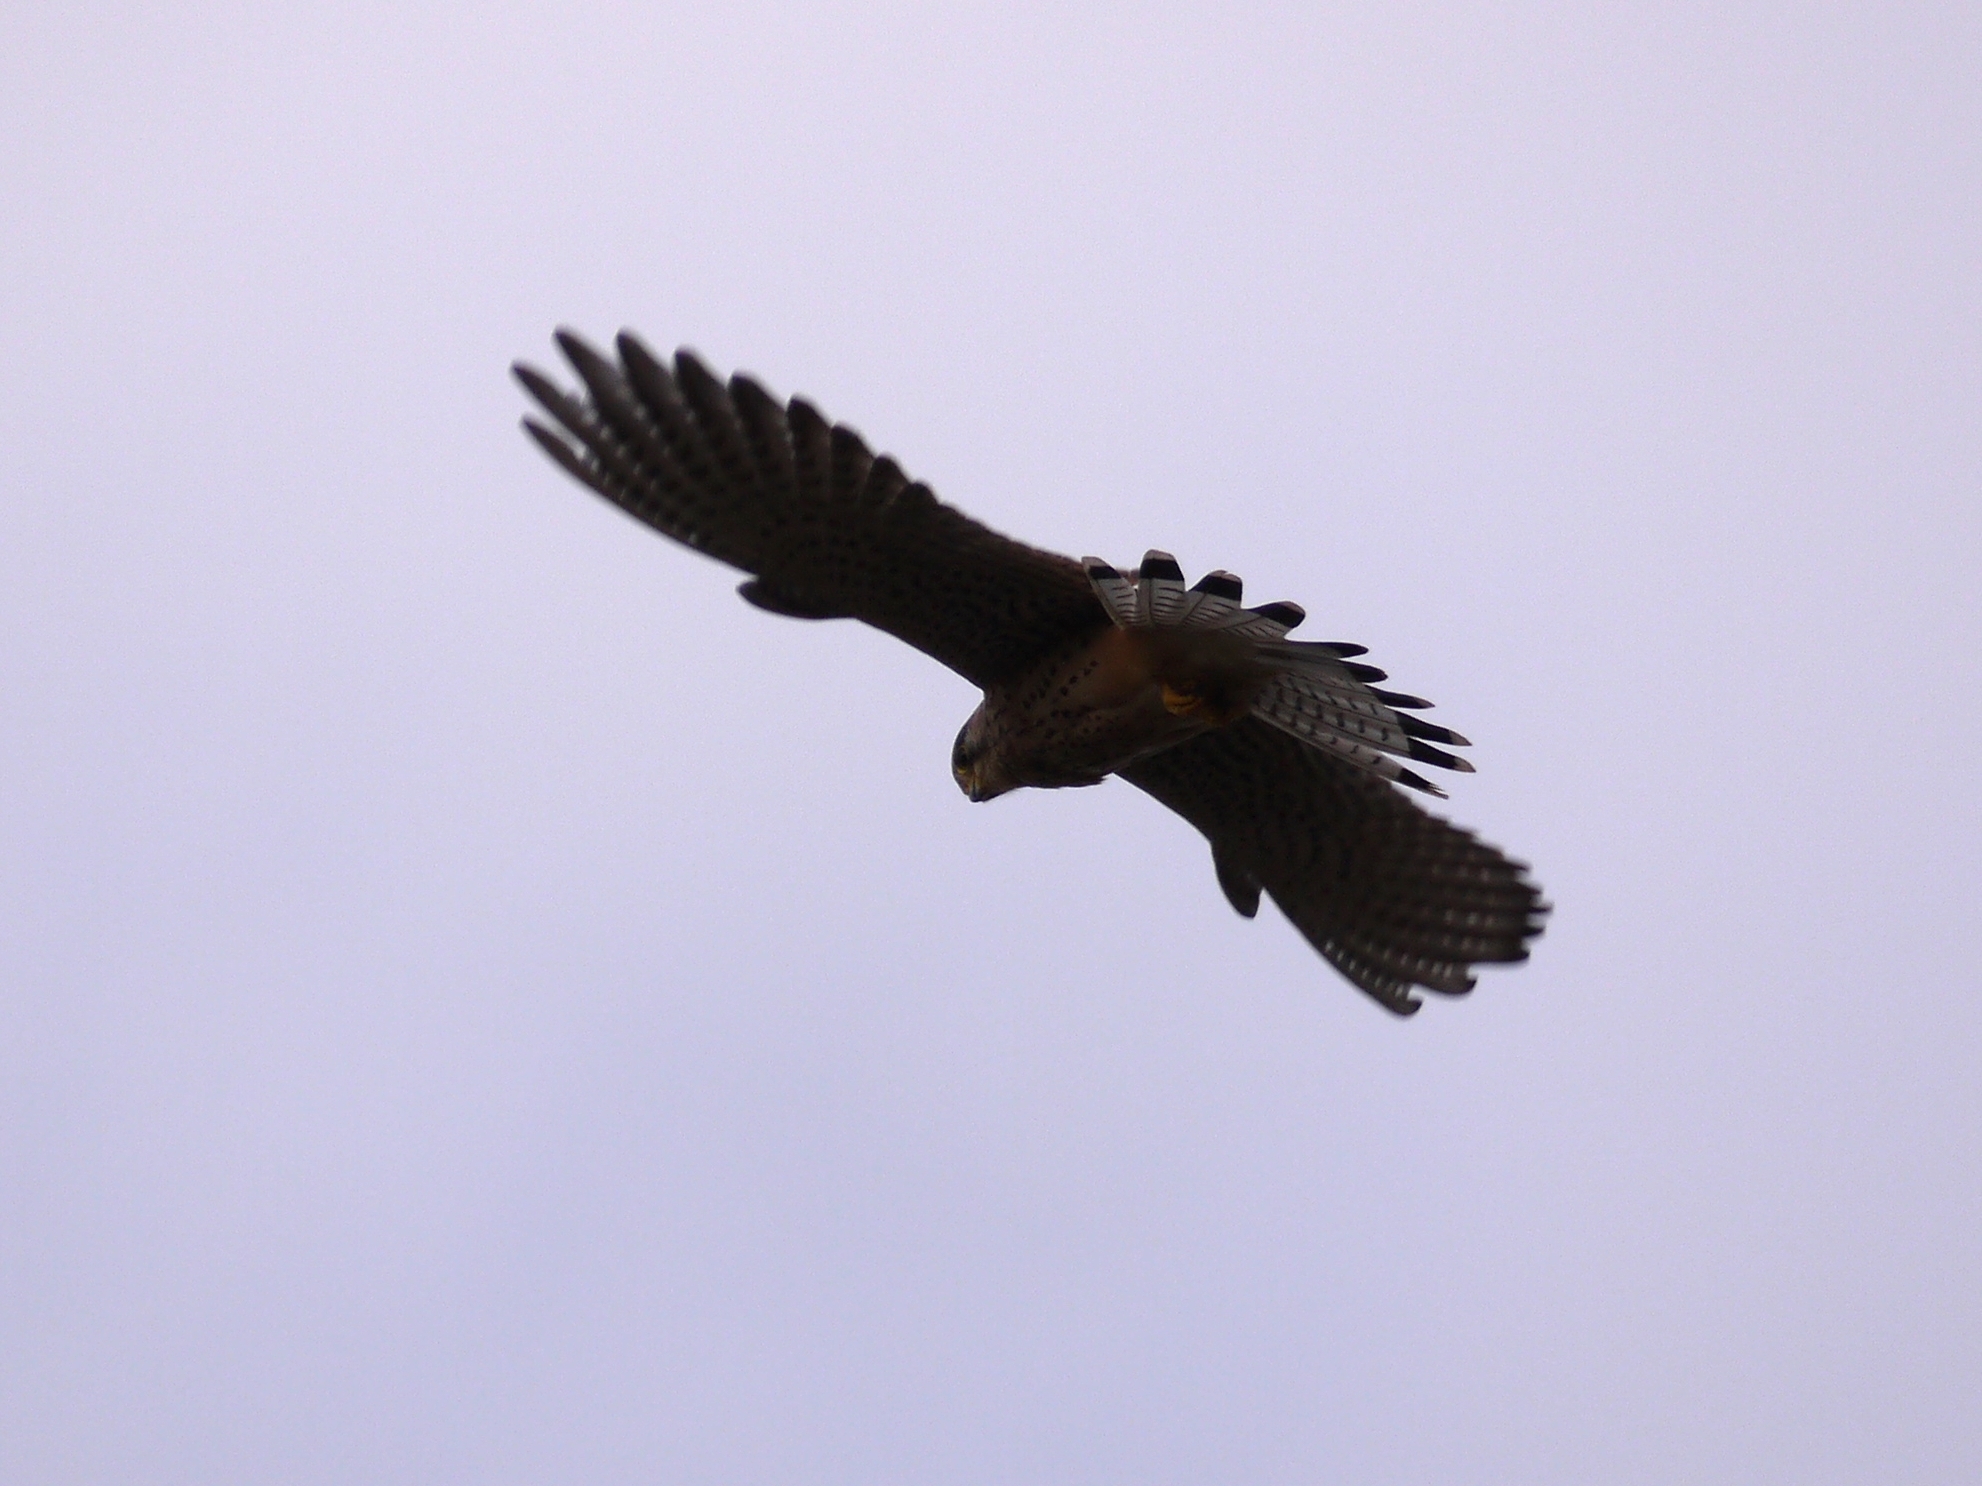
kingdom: Animalia
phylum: Chordata
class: Aves
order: Falconiformes
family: Falconidae
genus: Falco
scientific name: Falco tinnunculus
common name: Common kestrel
